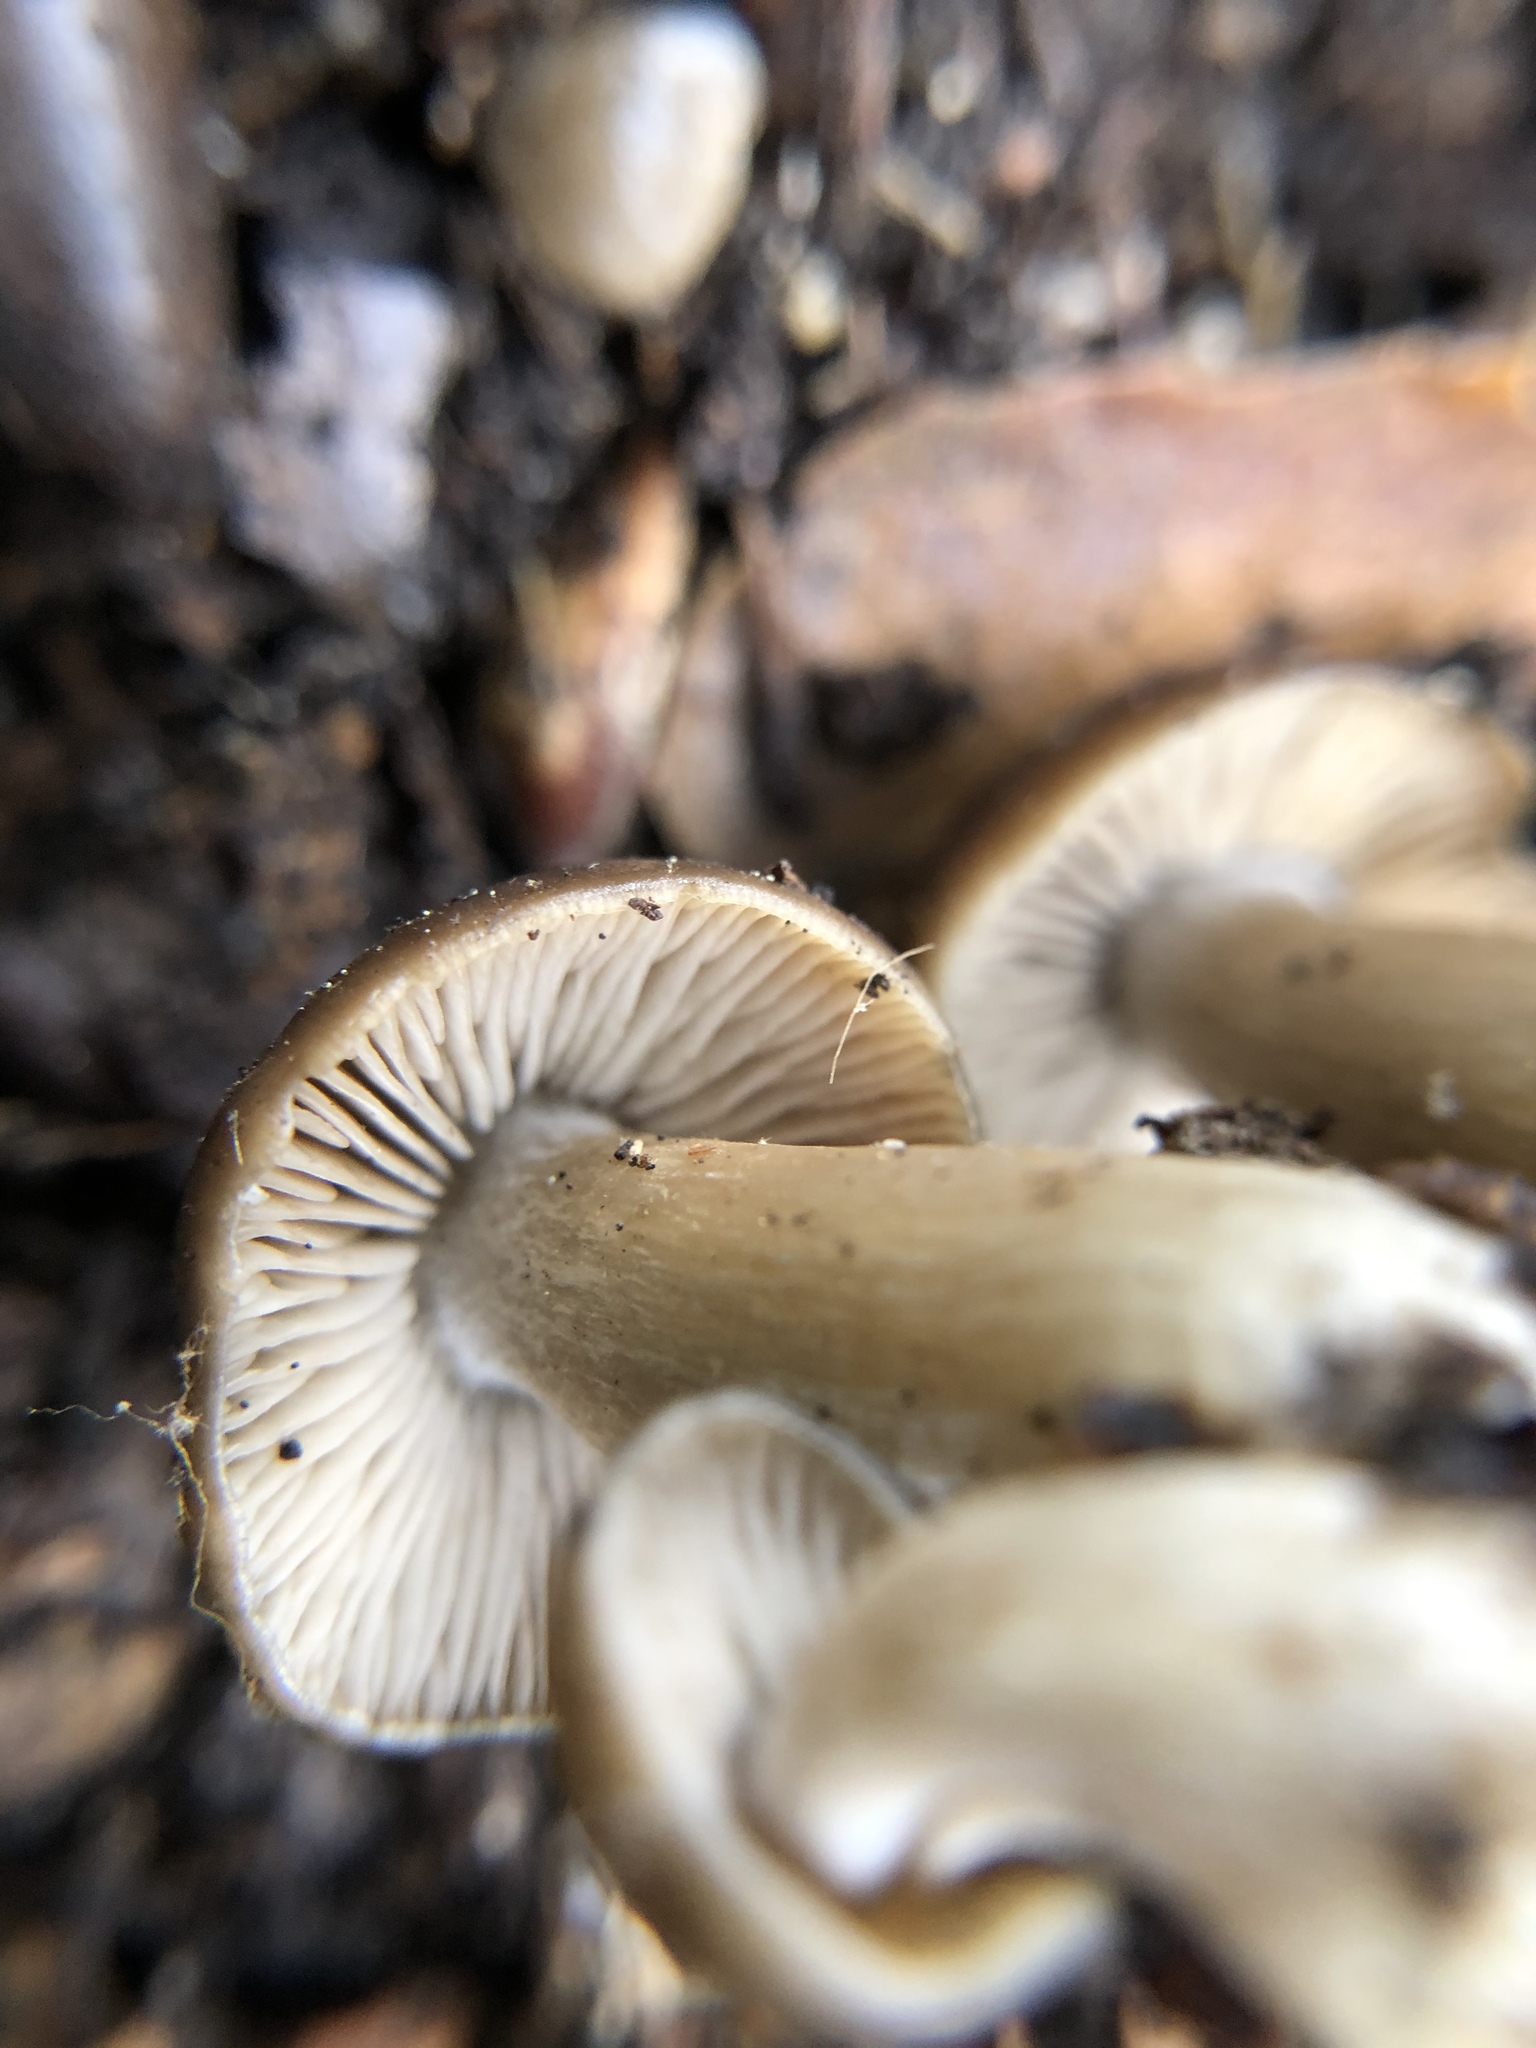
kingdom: Fungi
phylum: Basidiomycota
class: Agaricomycetes
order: Agaricales
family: Entolomataceae
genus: Entoloma
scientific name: Entoloma ferruginans
